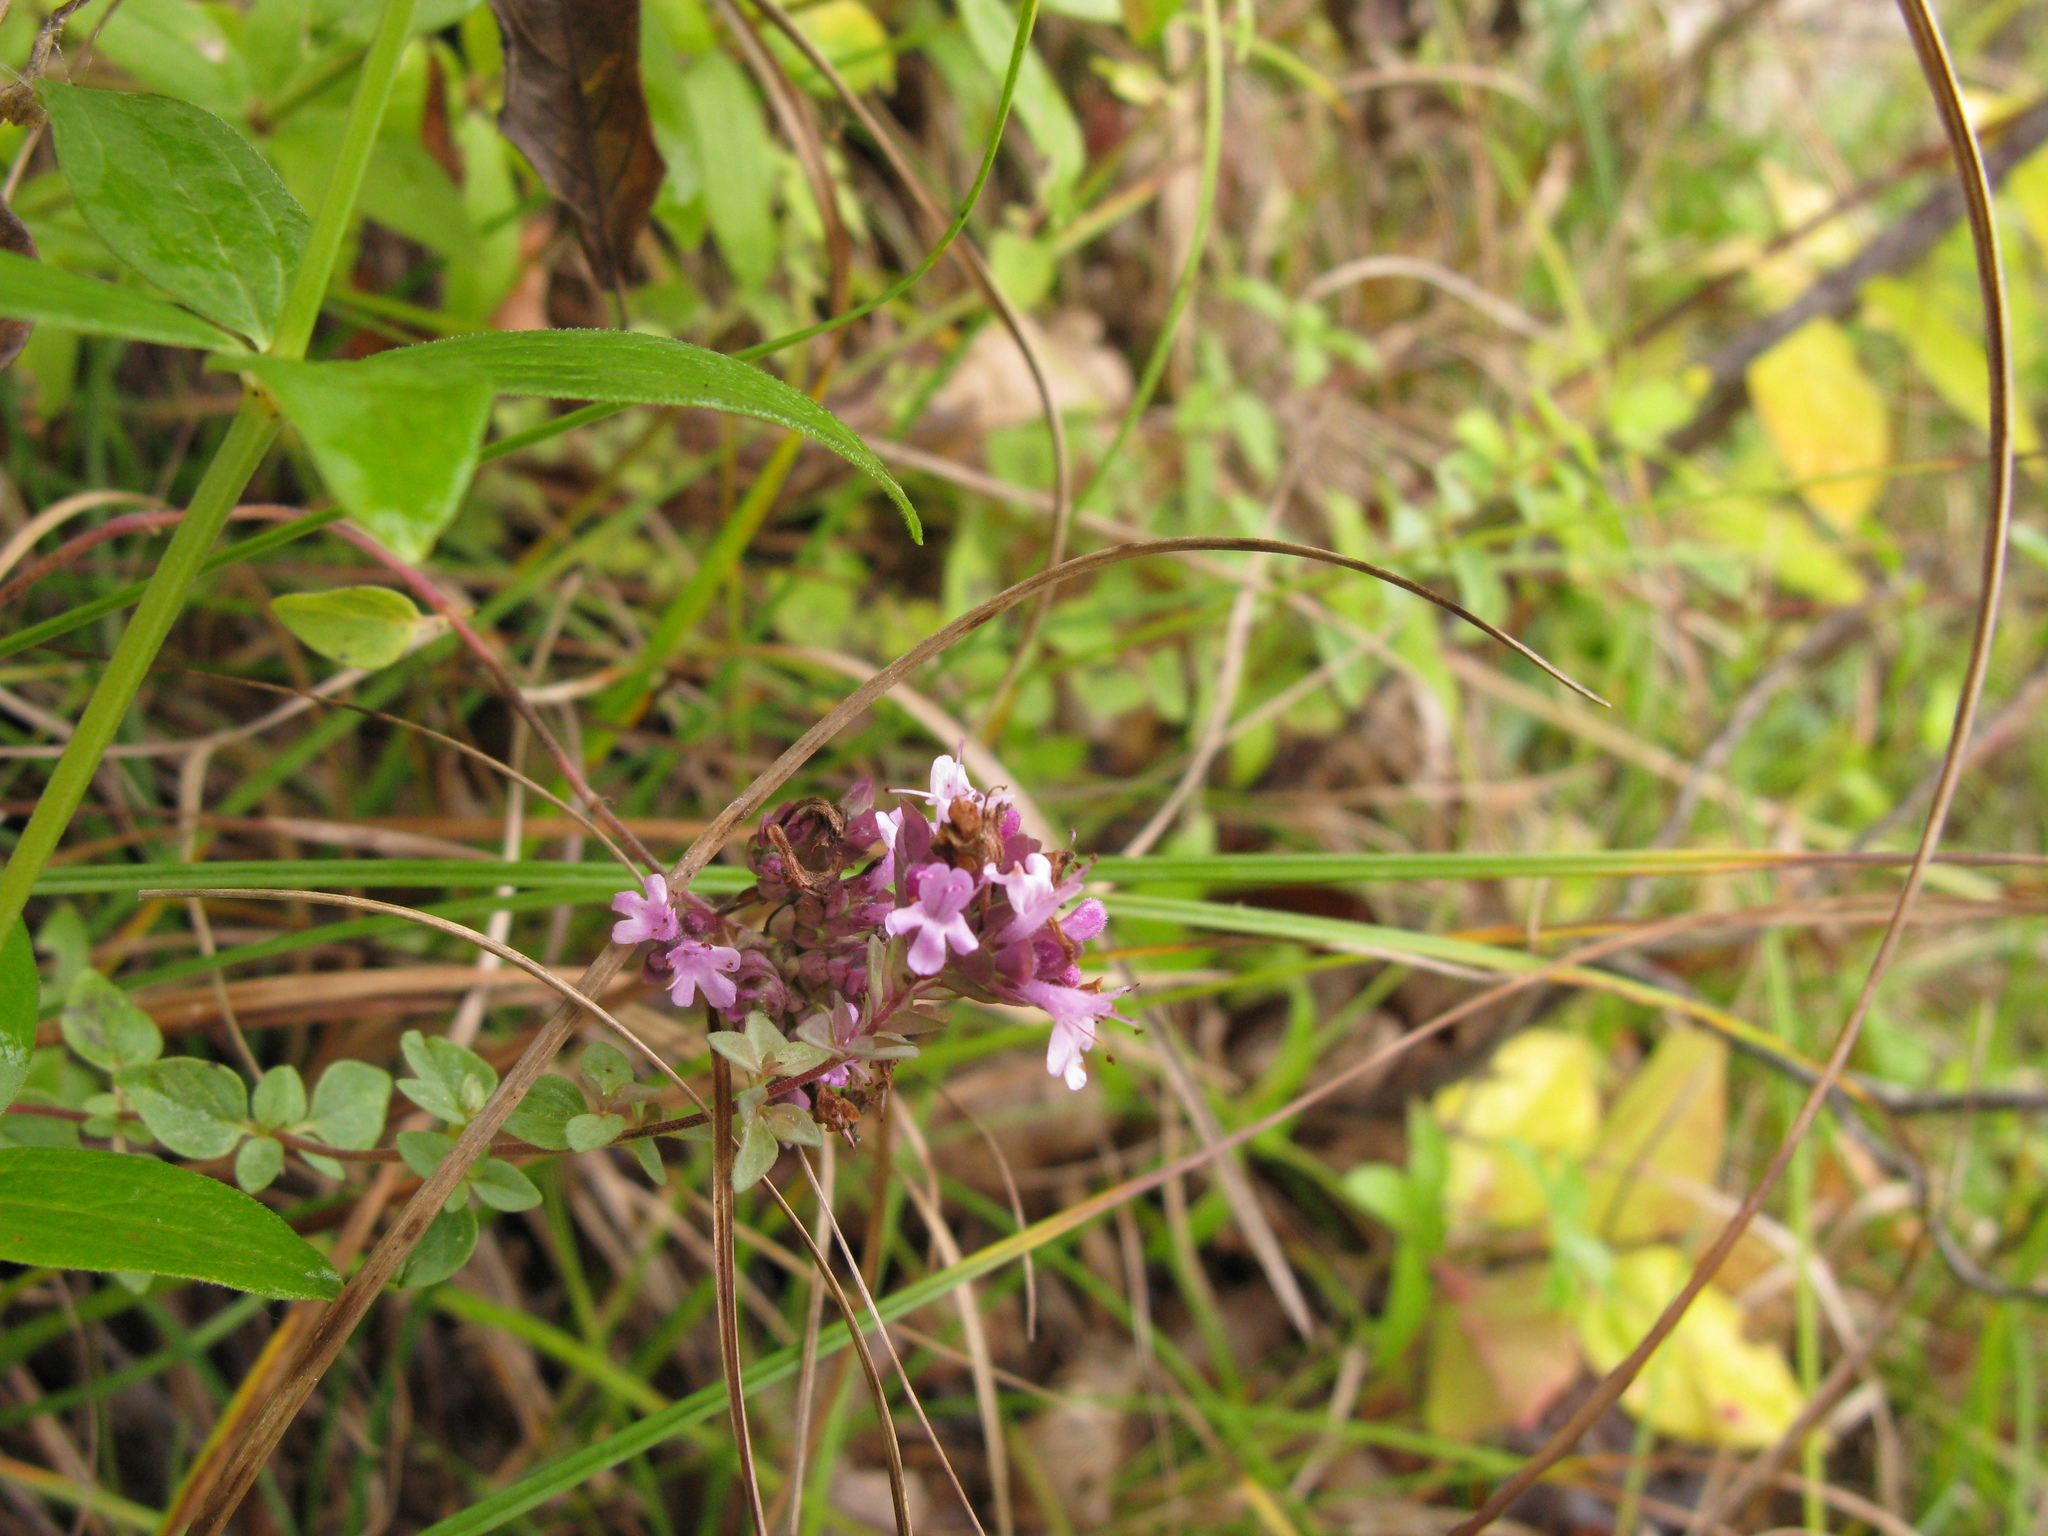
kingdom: Plantae
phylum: Tracheophyta
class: Magnoliopsida
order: Lamiales
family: Lamiaceae
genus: Origanum
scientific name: Origanum vulgare
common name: Wild marjoram
